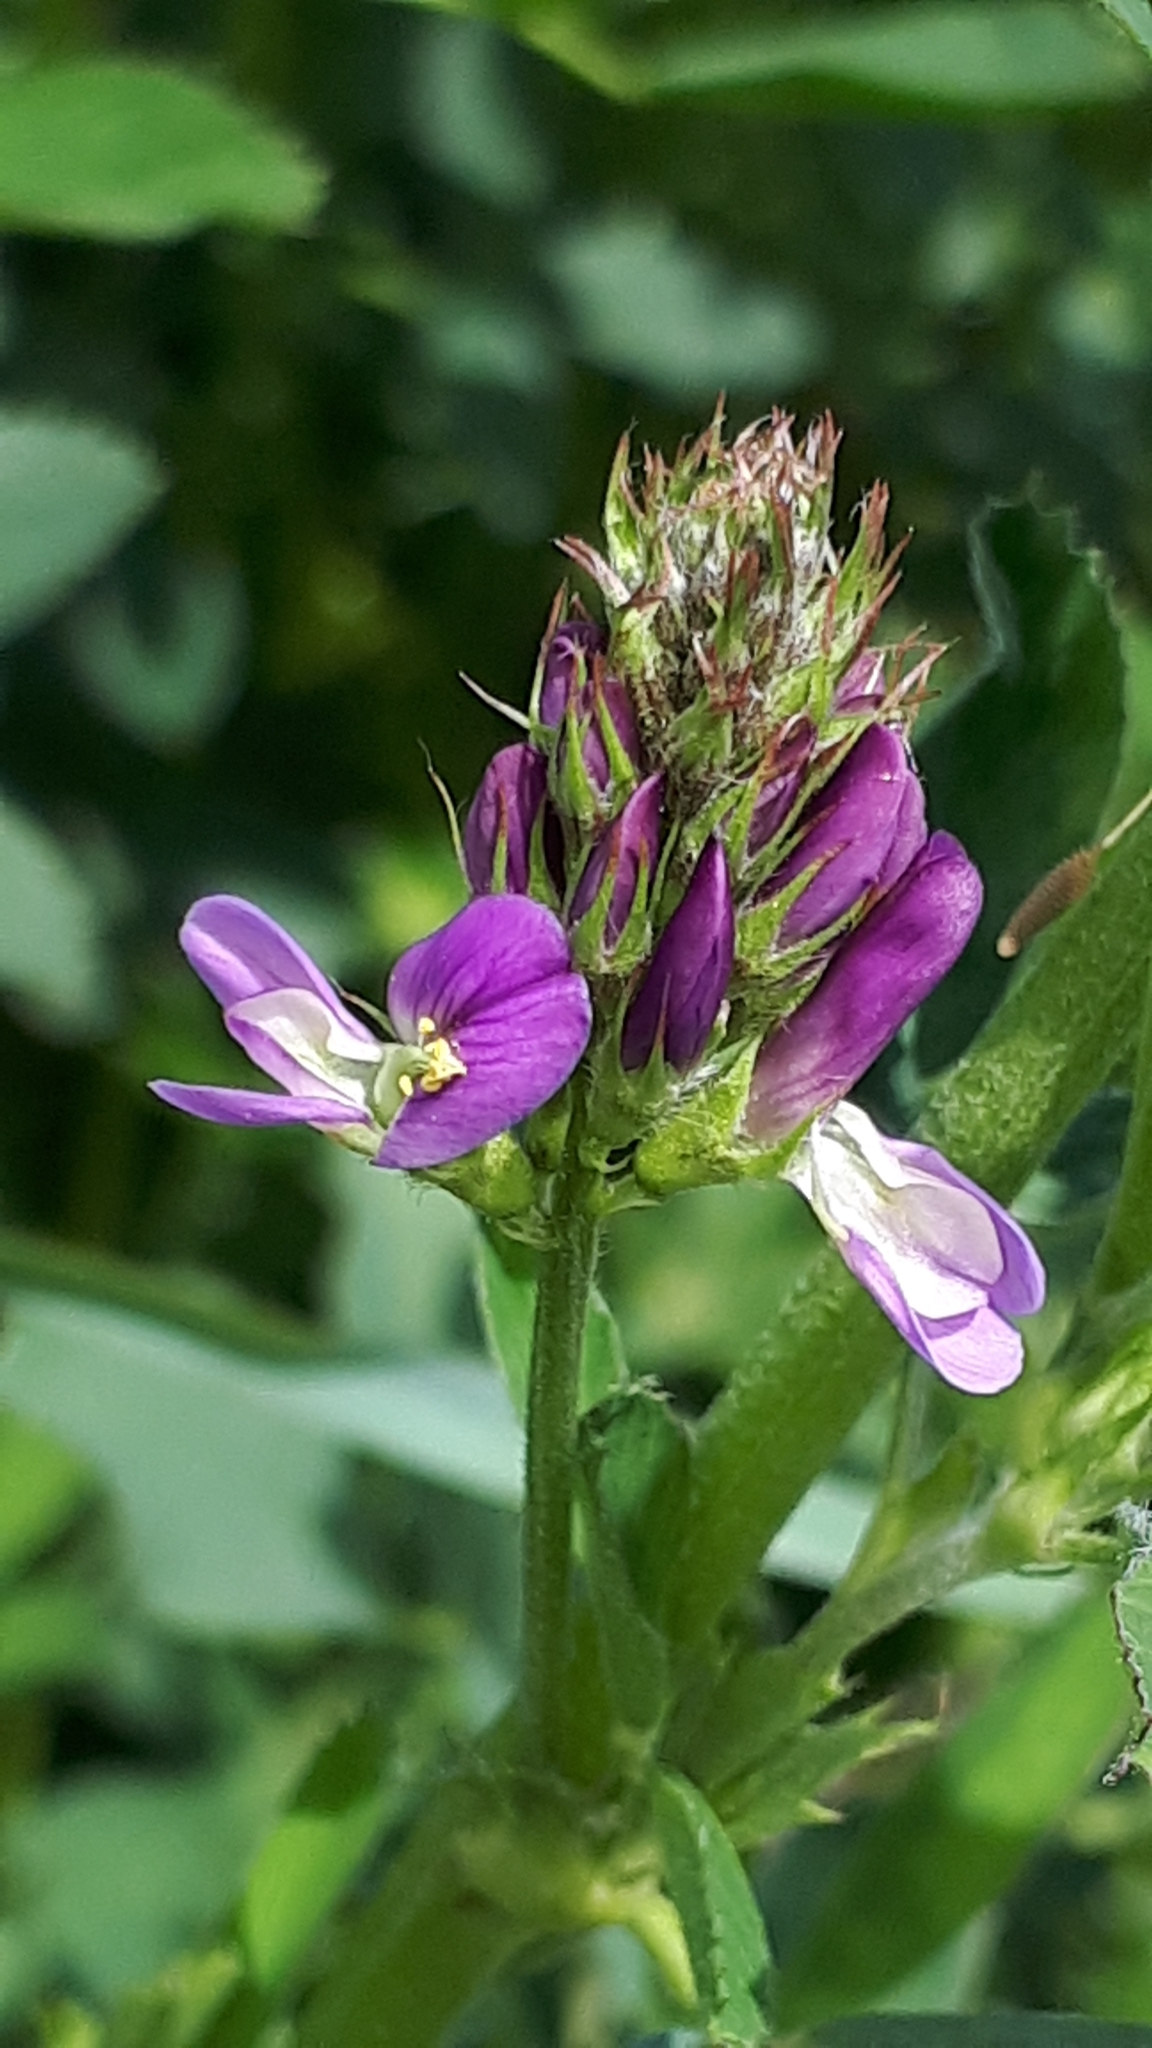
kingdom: Plantae
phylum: Tracheophyta
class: Magnoliopsida
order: Fabales
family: Fabaceae
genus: Medicago
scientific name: Medicago varia
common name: Sand lucerne
